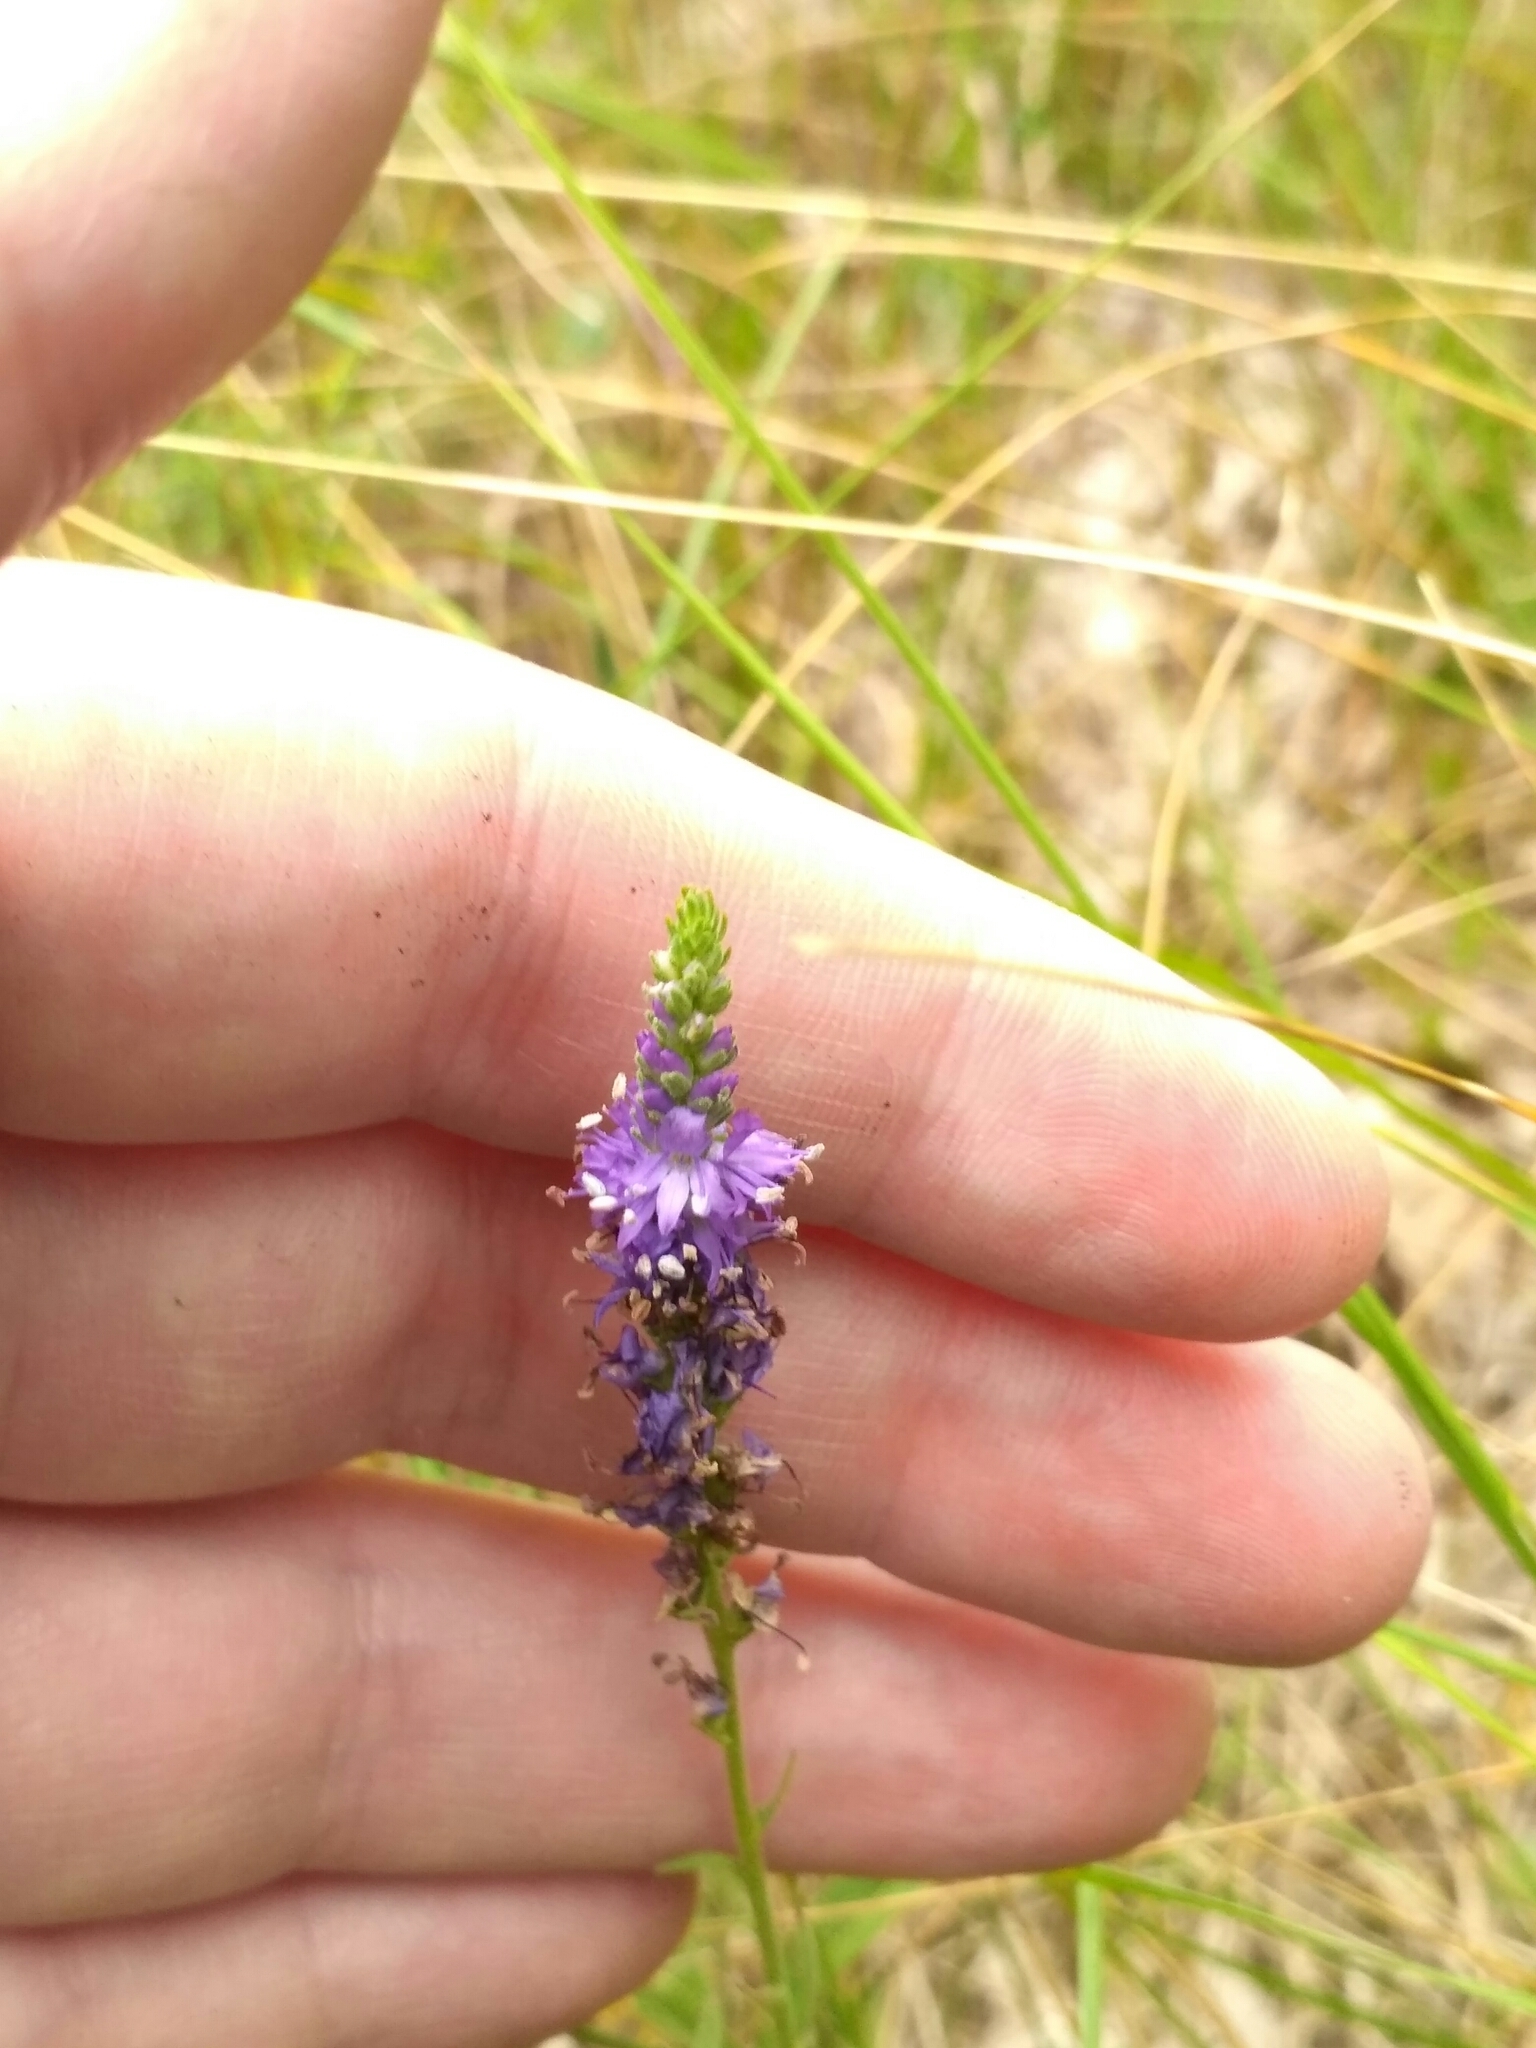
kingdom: Plantae
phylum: Tracheophyta
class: Magnoliopsida
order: Lamiales
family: Plantaginaceae
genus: Veronica
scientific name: Veronica spicata
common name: Spiked speedwell
